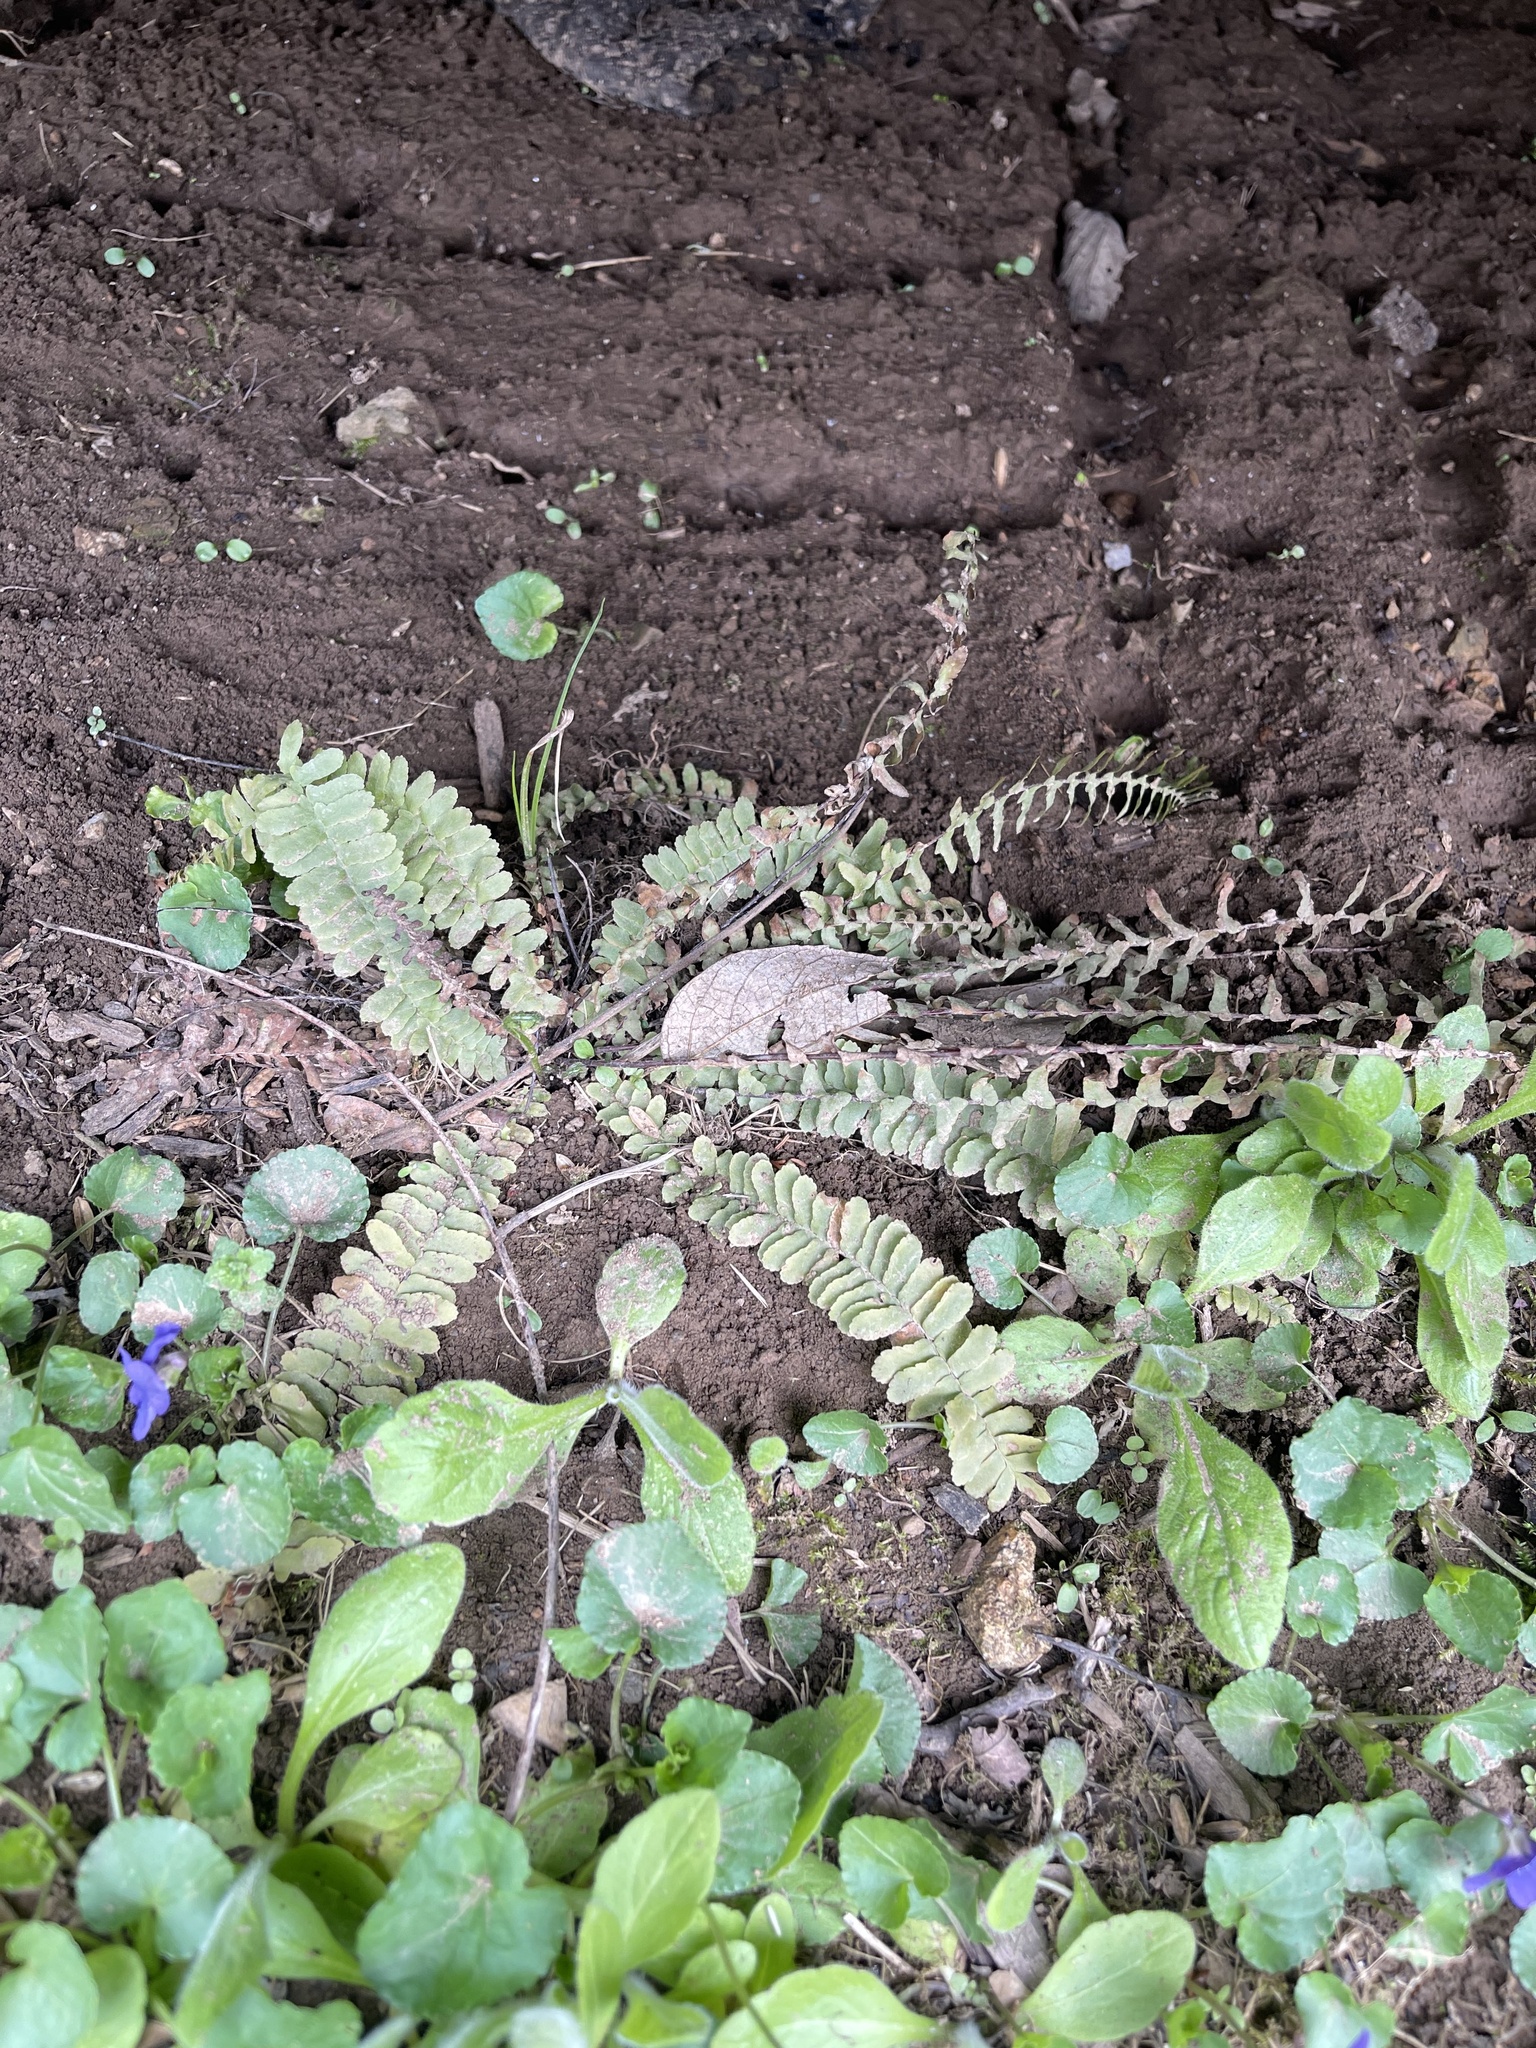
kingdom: Plantae
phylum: Tracheophyta
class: Polypodiopsida
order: Polypodiales
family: Aspleniaceae
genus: Asplenium
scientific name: Asplenium platyneuron
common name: Ebony spleenwort
